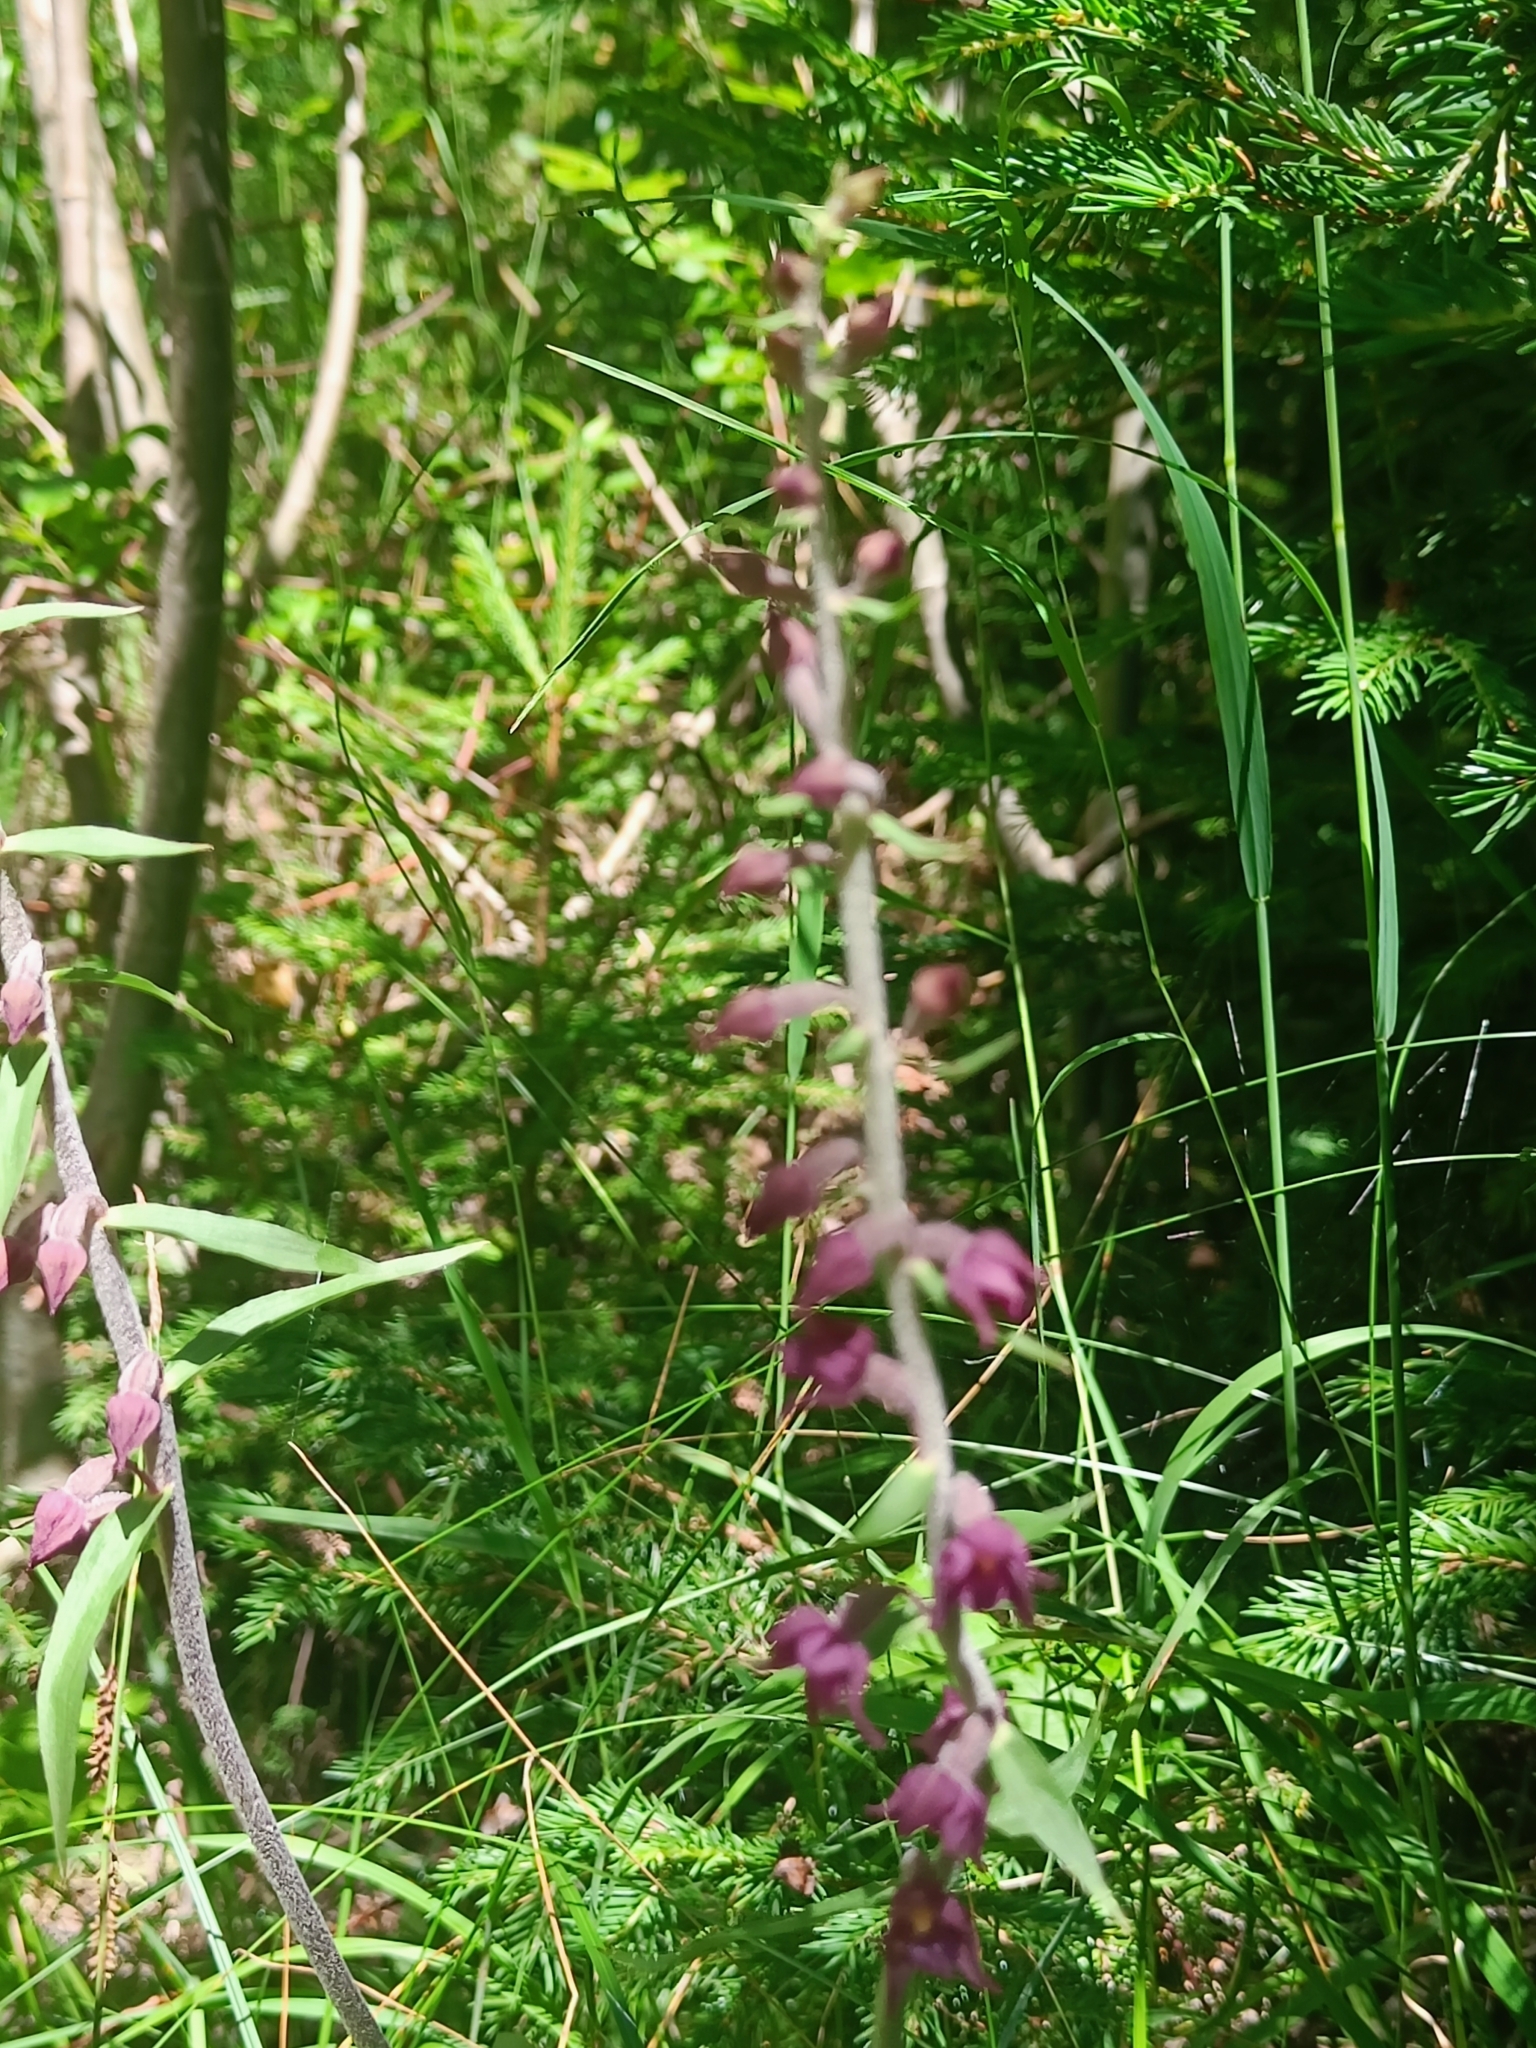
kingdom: Plantae
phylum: Tracheophyta
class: Liliopsida
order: Asparagales
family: Orchidaceae
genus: Epipactis
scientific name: Epipactis atrorubens
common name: Dark-red helleborine
